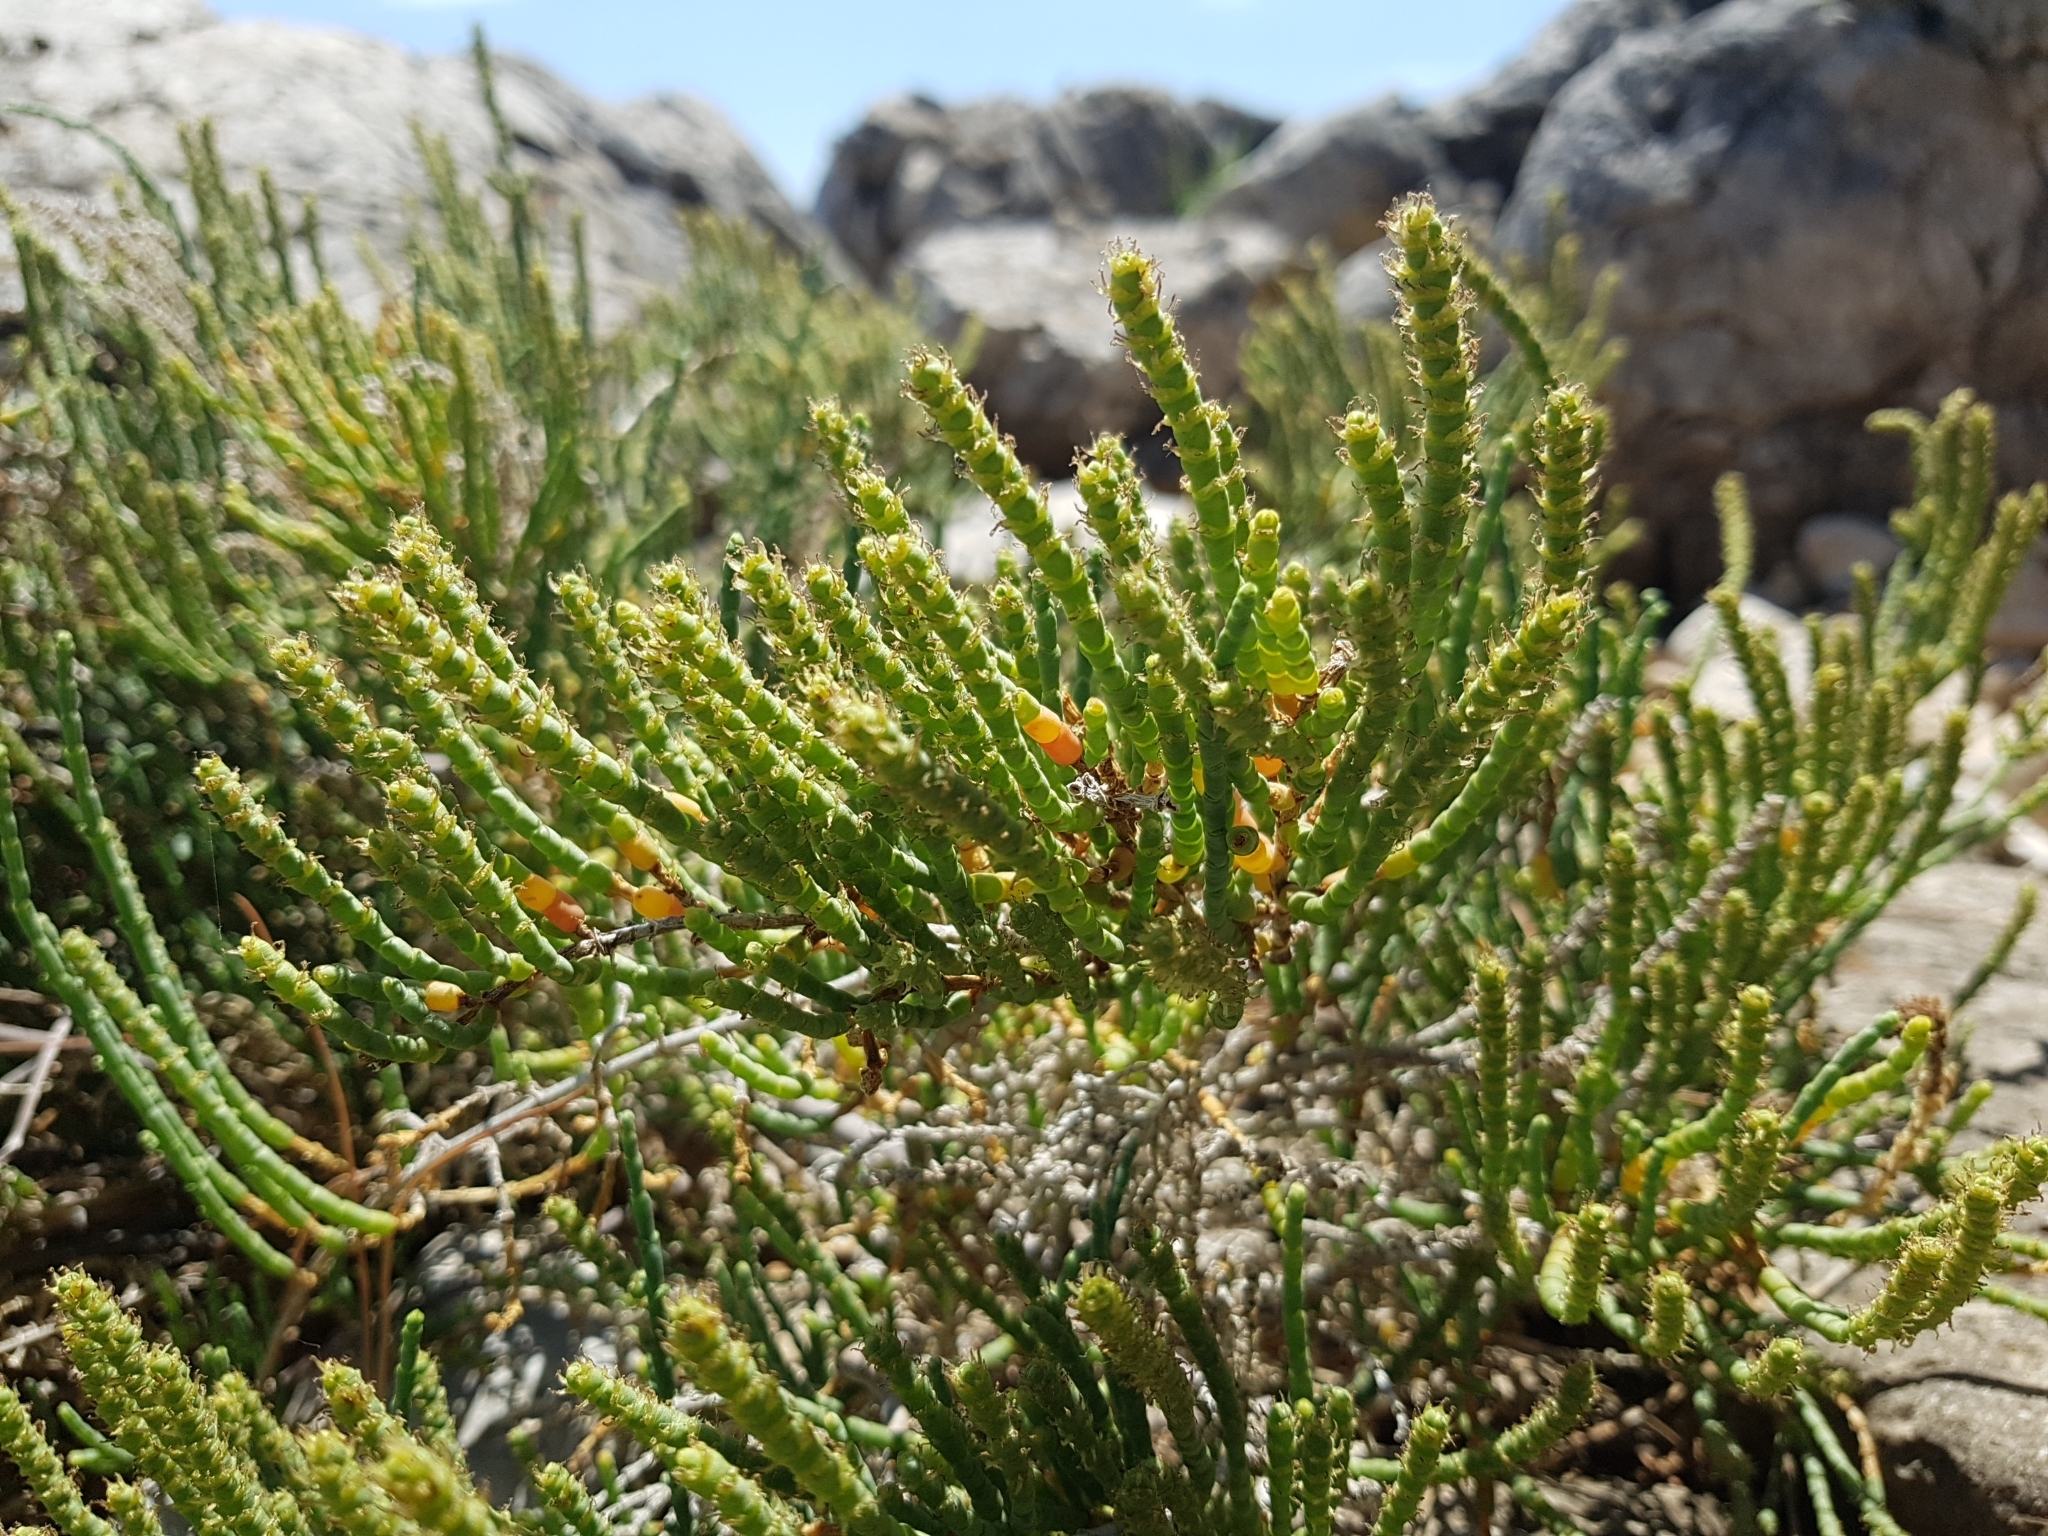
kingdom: Plantae
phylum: Tracheophyta
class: Magnoliopsida
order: Caryophyllales
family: Amaranthaceae
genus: Arthrocaulon
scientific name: Arthrocaulon macrostachyum
